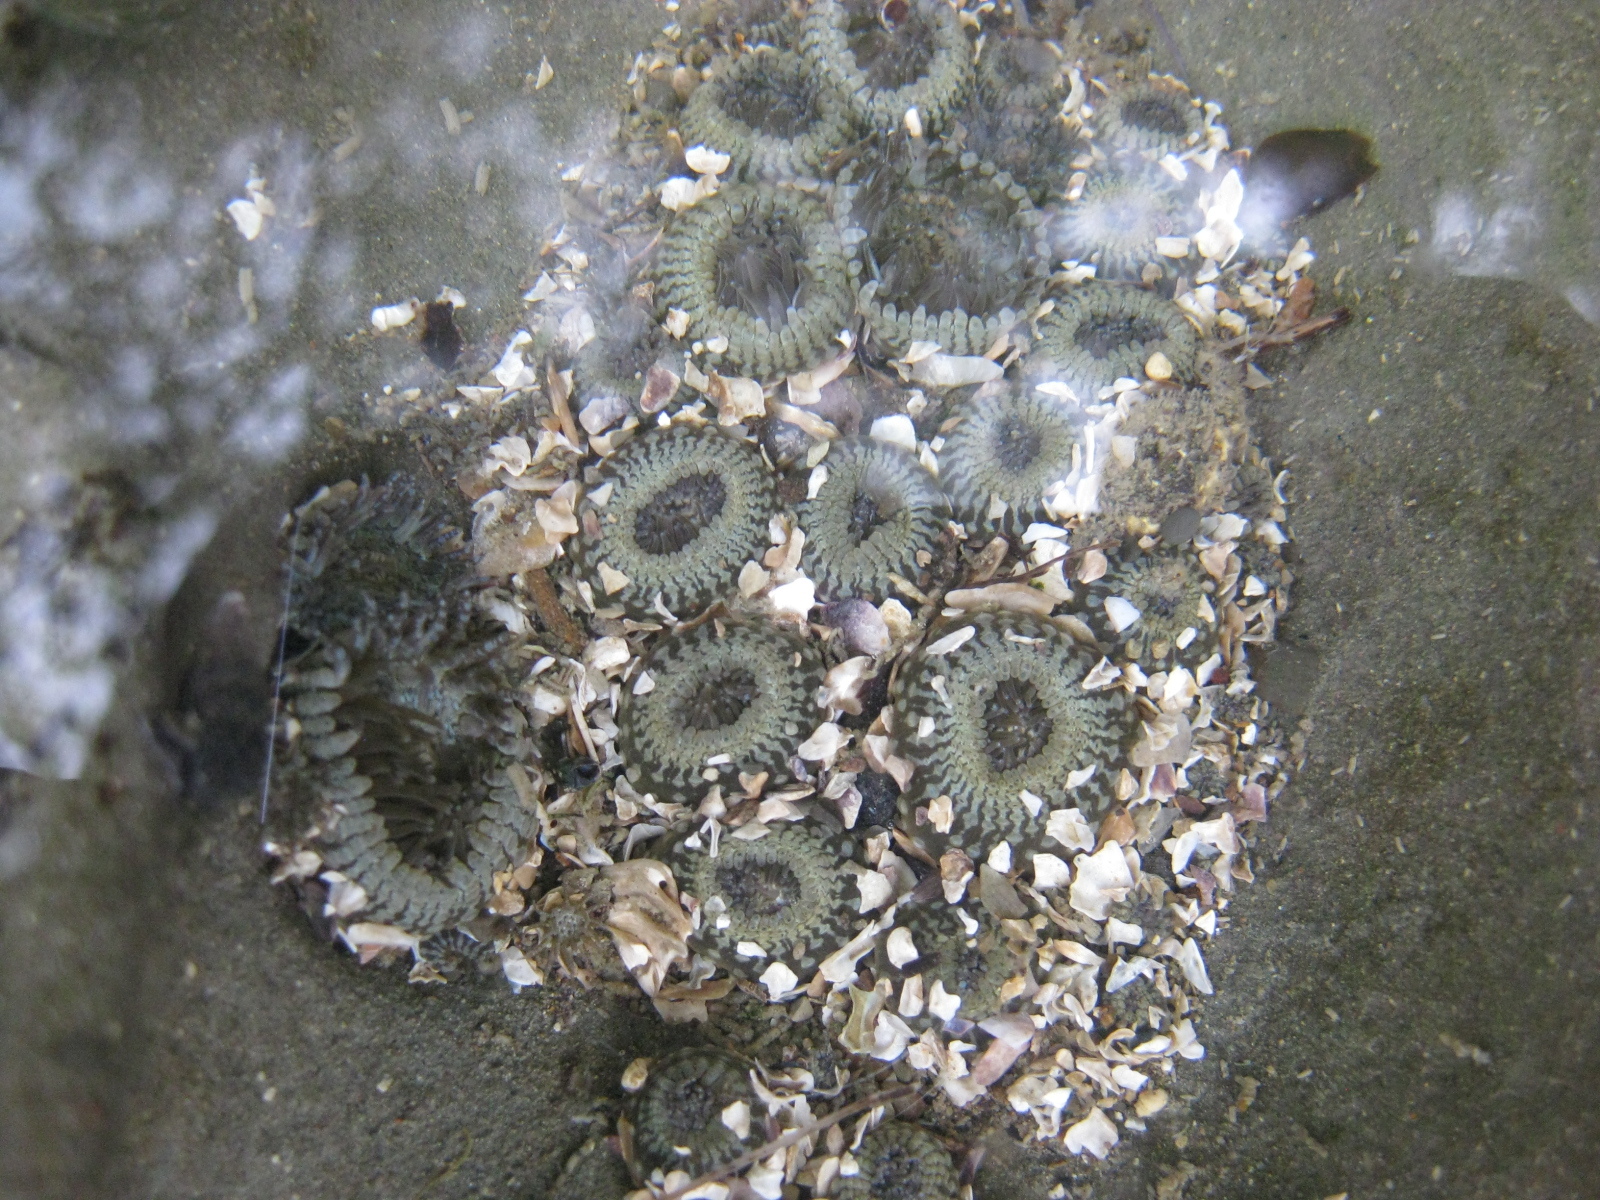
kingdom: Animalia
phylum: Cnidaria
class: Anthozoa
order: Actiniaria
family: Actiniidae
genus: Anthopleura
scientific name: Anthopleura hermaphroditica
